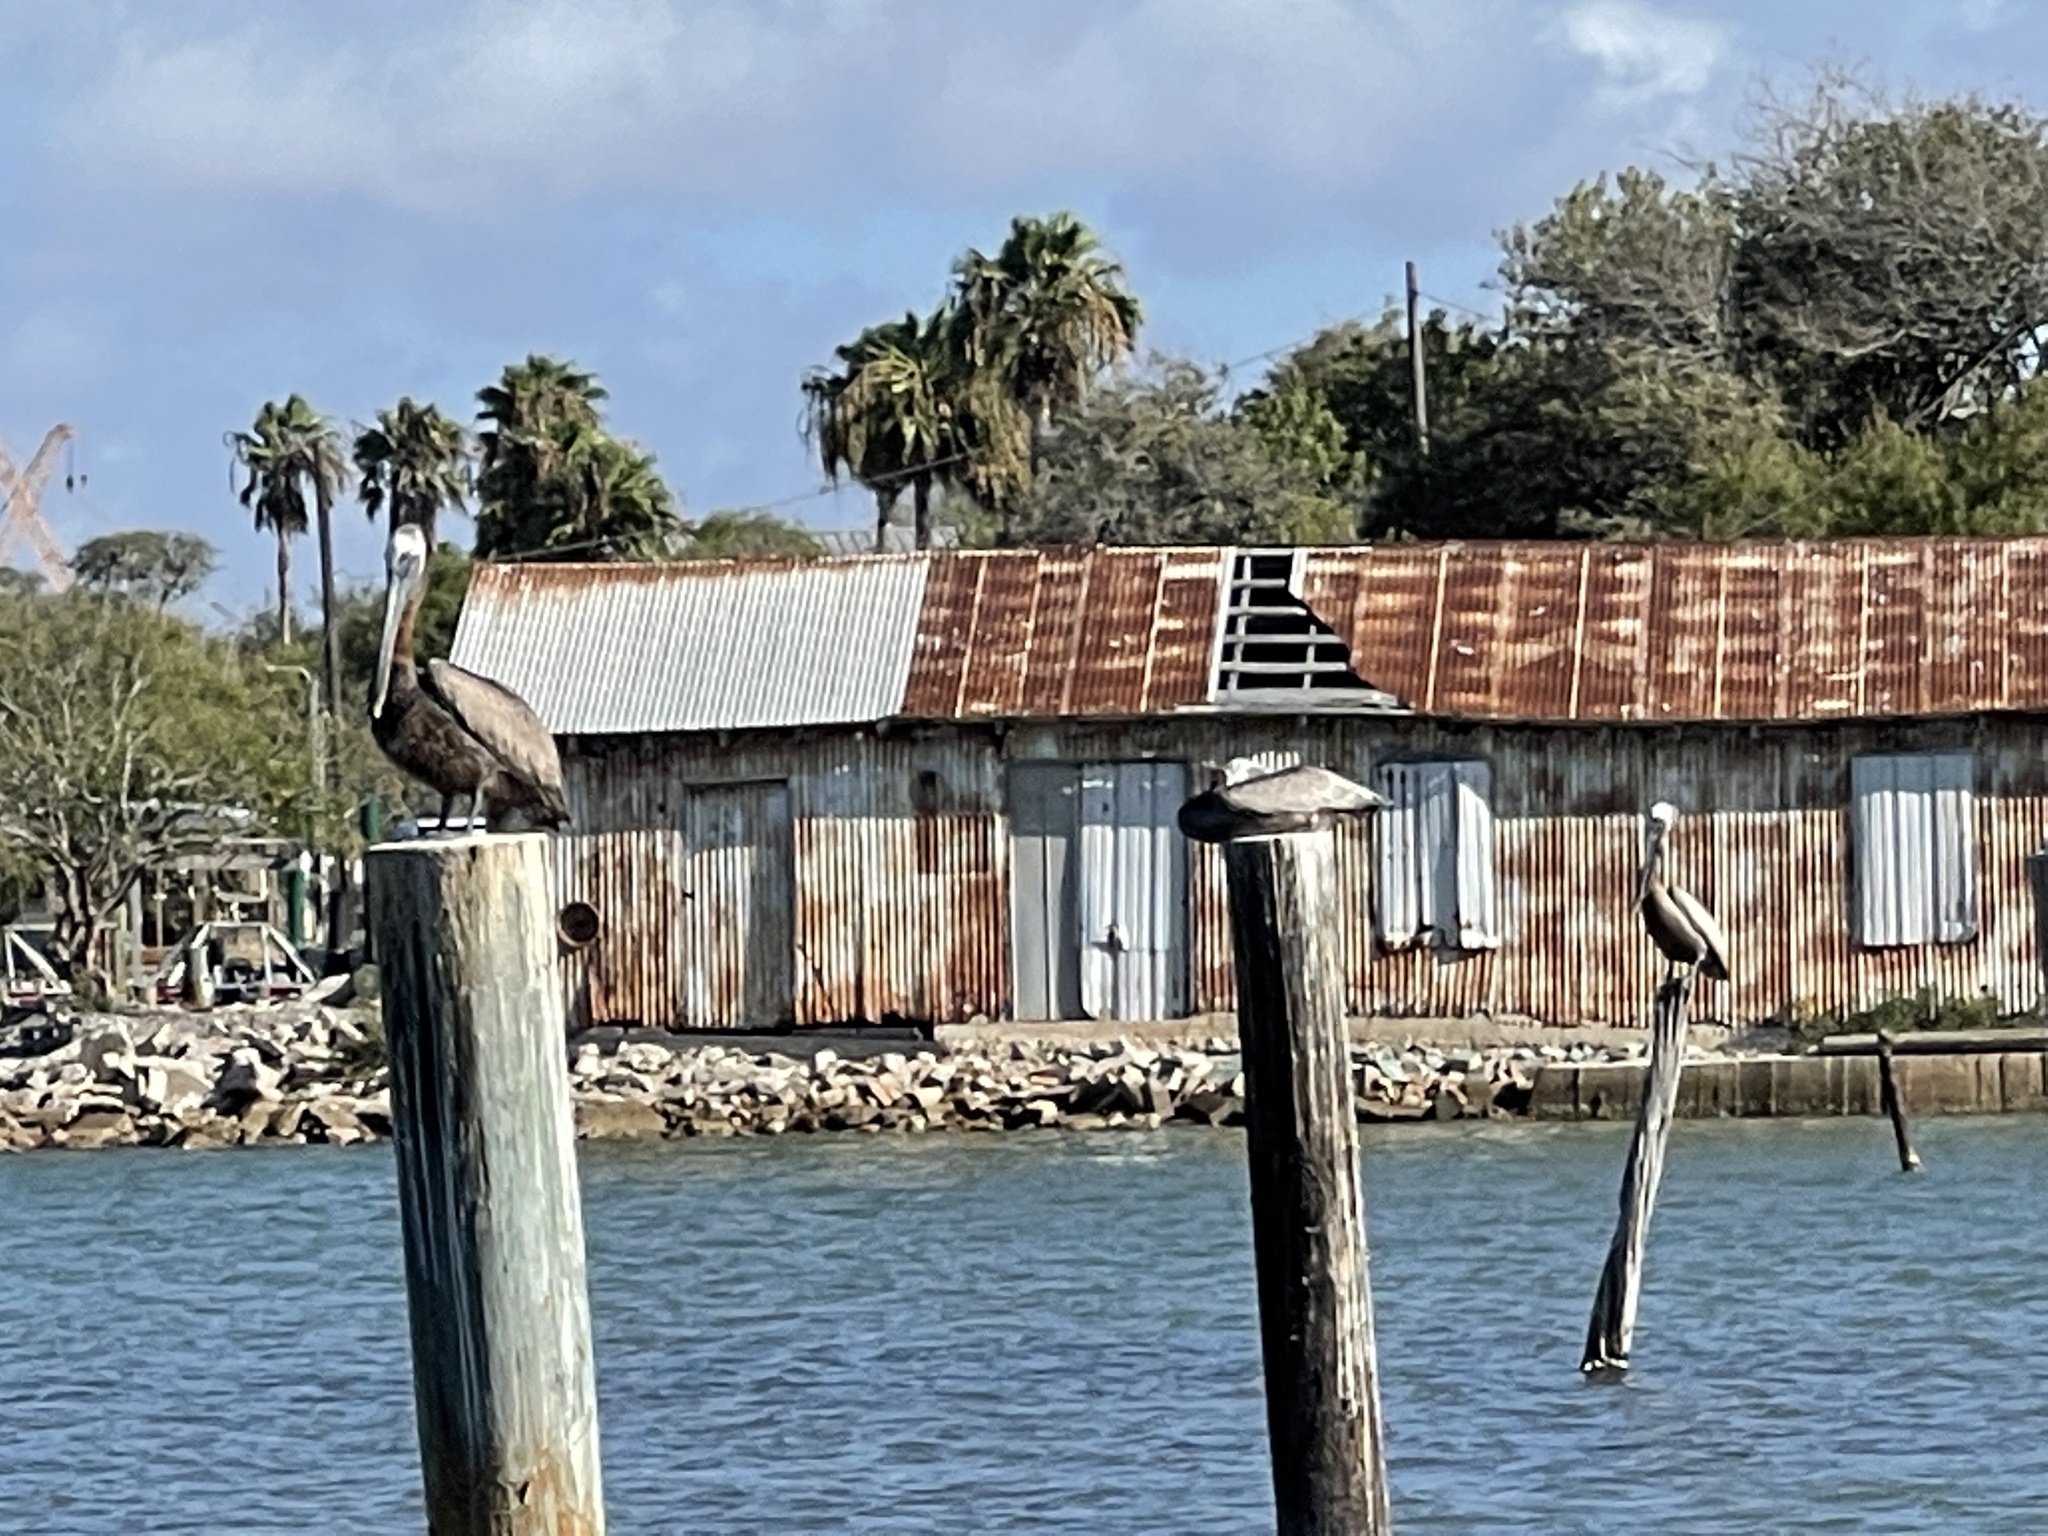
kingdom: Animalia
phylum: Chordata
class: Aves
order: Pelecaniformes
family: Pelecanidae
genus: Pelecanus
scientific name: Pelecanus occidentalis
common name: Brown pelican
